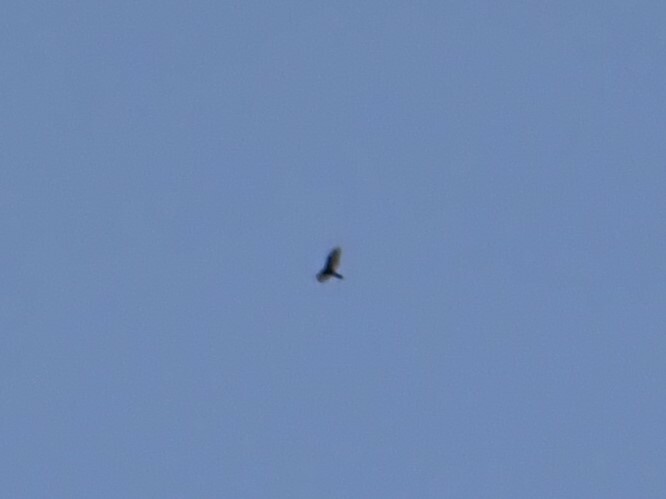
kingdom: Animalia
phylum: Chordata
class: Aves
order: Accipitriformes
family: Cathartidae
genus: Cathartes
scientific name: Cathartes aura
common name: Turkey vulture
